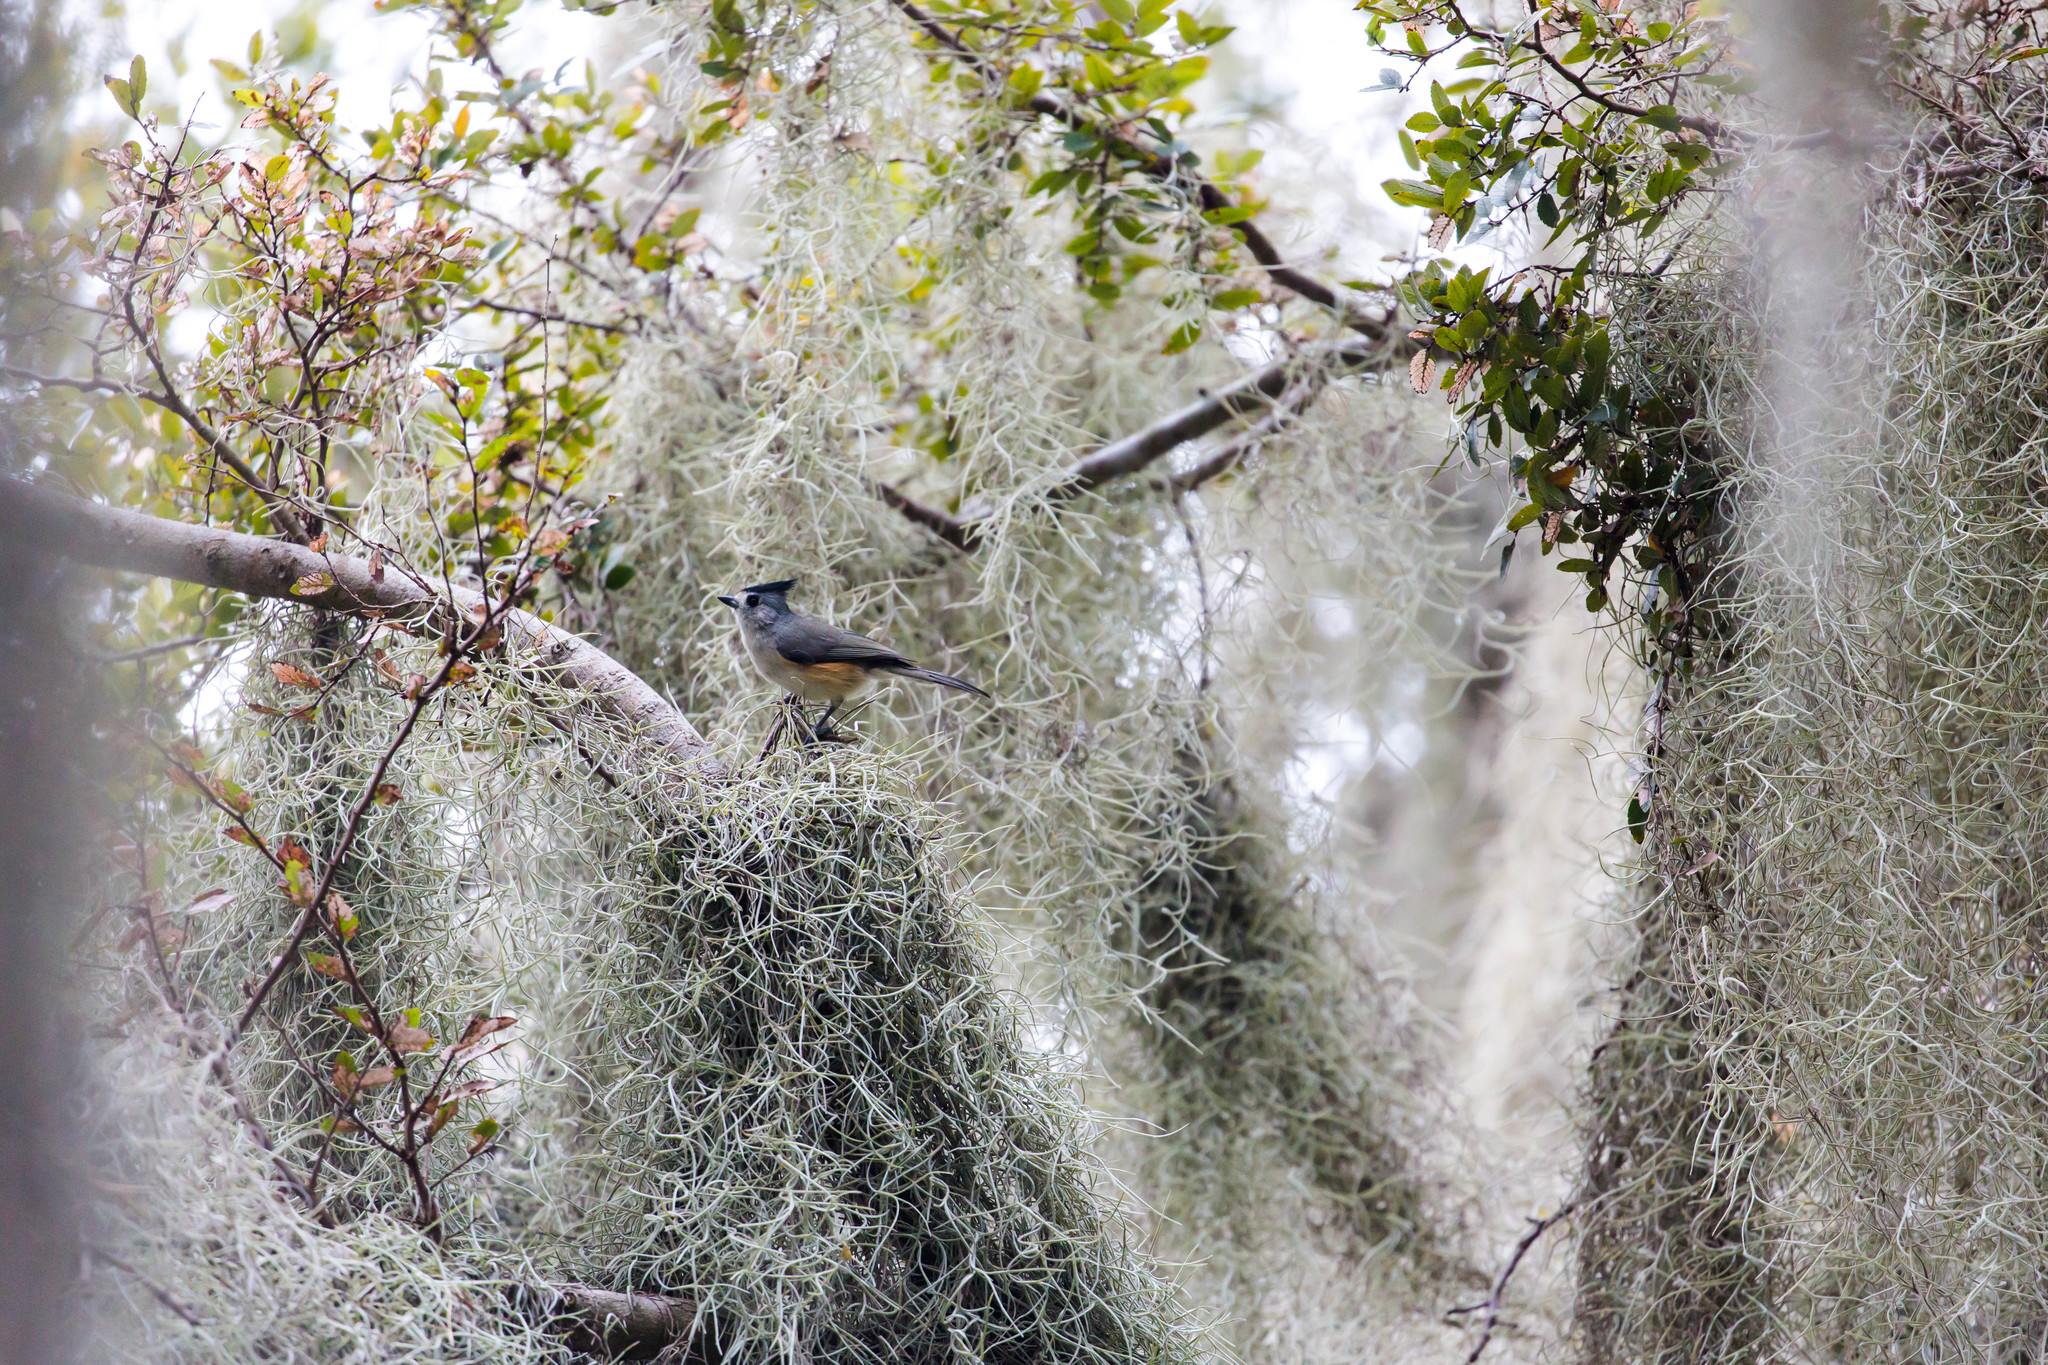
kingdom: Animalia
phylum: Chordata
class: Aves
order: Passeriformes
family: Paridae
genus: Baeolophus
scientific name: Baeolophus atricristatus
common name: Black-crested titmouse
